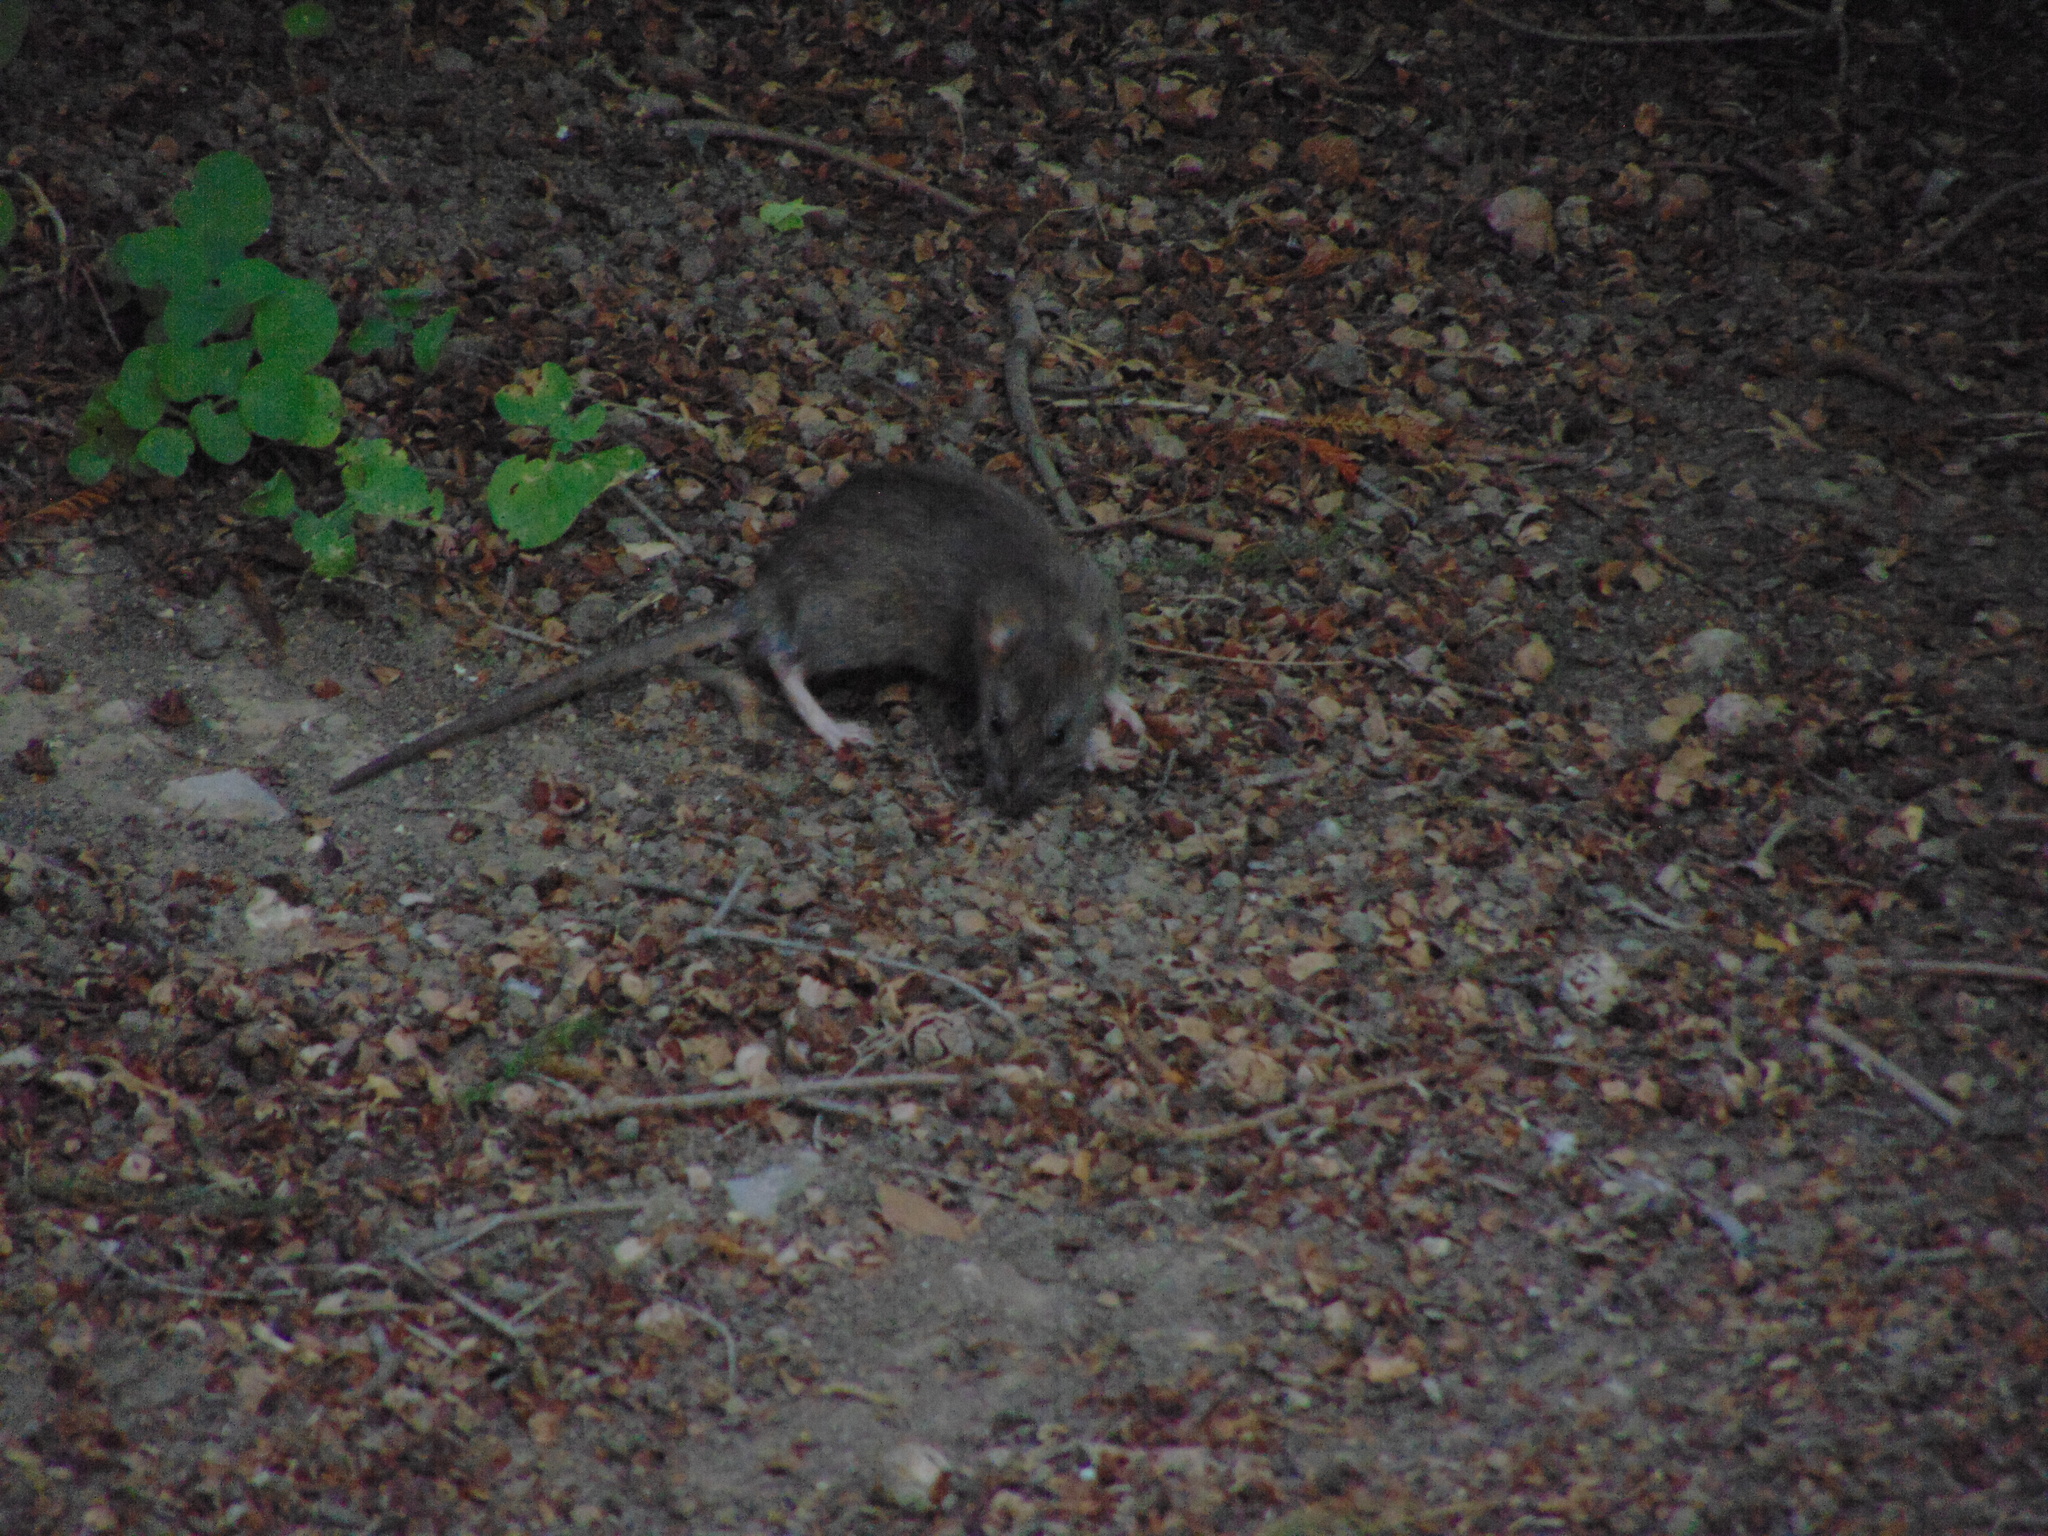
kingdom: Animalia
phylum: Chordata
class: Mammalia
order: Rodentia
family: Muridae
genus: Rattus
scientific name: Rattus norvegicus
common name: Brown rat
